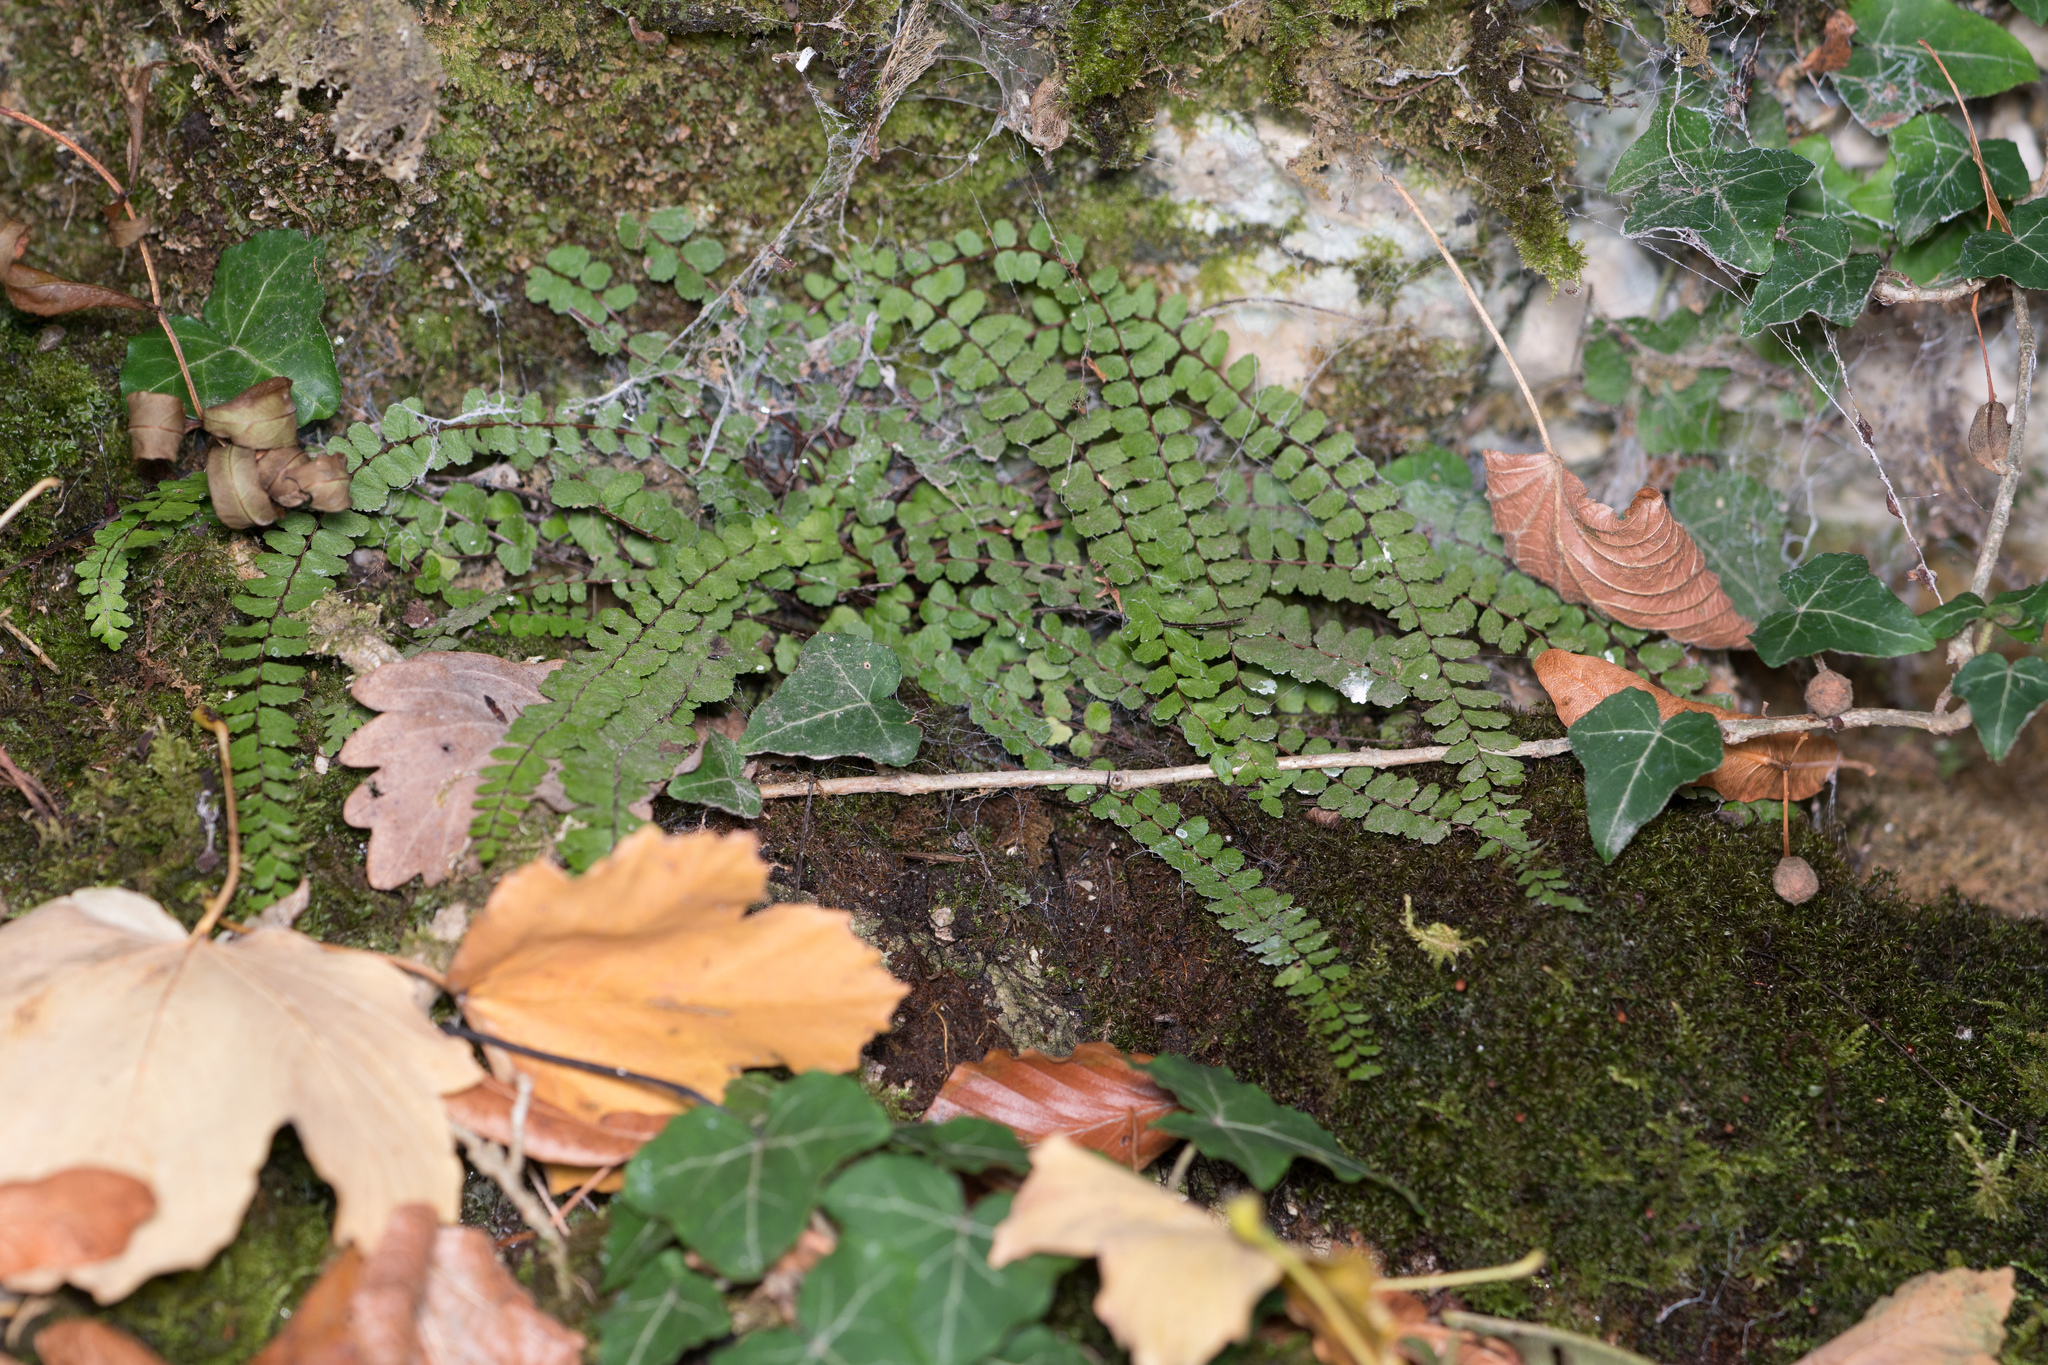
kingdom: Plantae
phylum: Tracheophyta
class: Polypodiopsida
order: Polypodiales
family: Aspleniaceae
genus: Asplenium
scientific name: Asplenium trichomanes
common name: Maidenhair spleenwort
